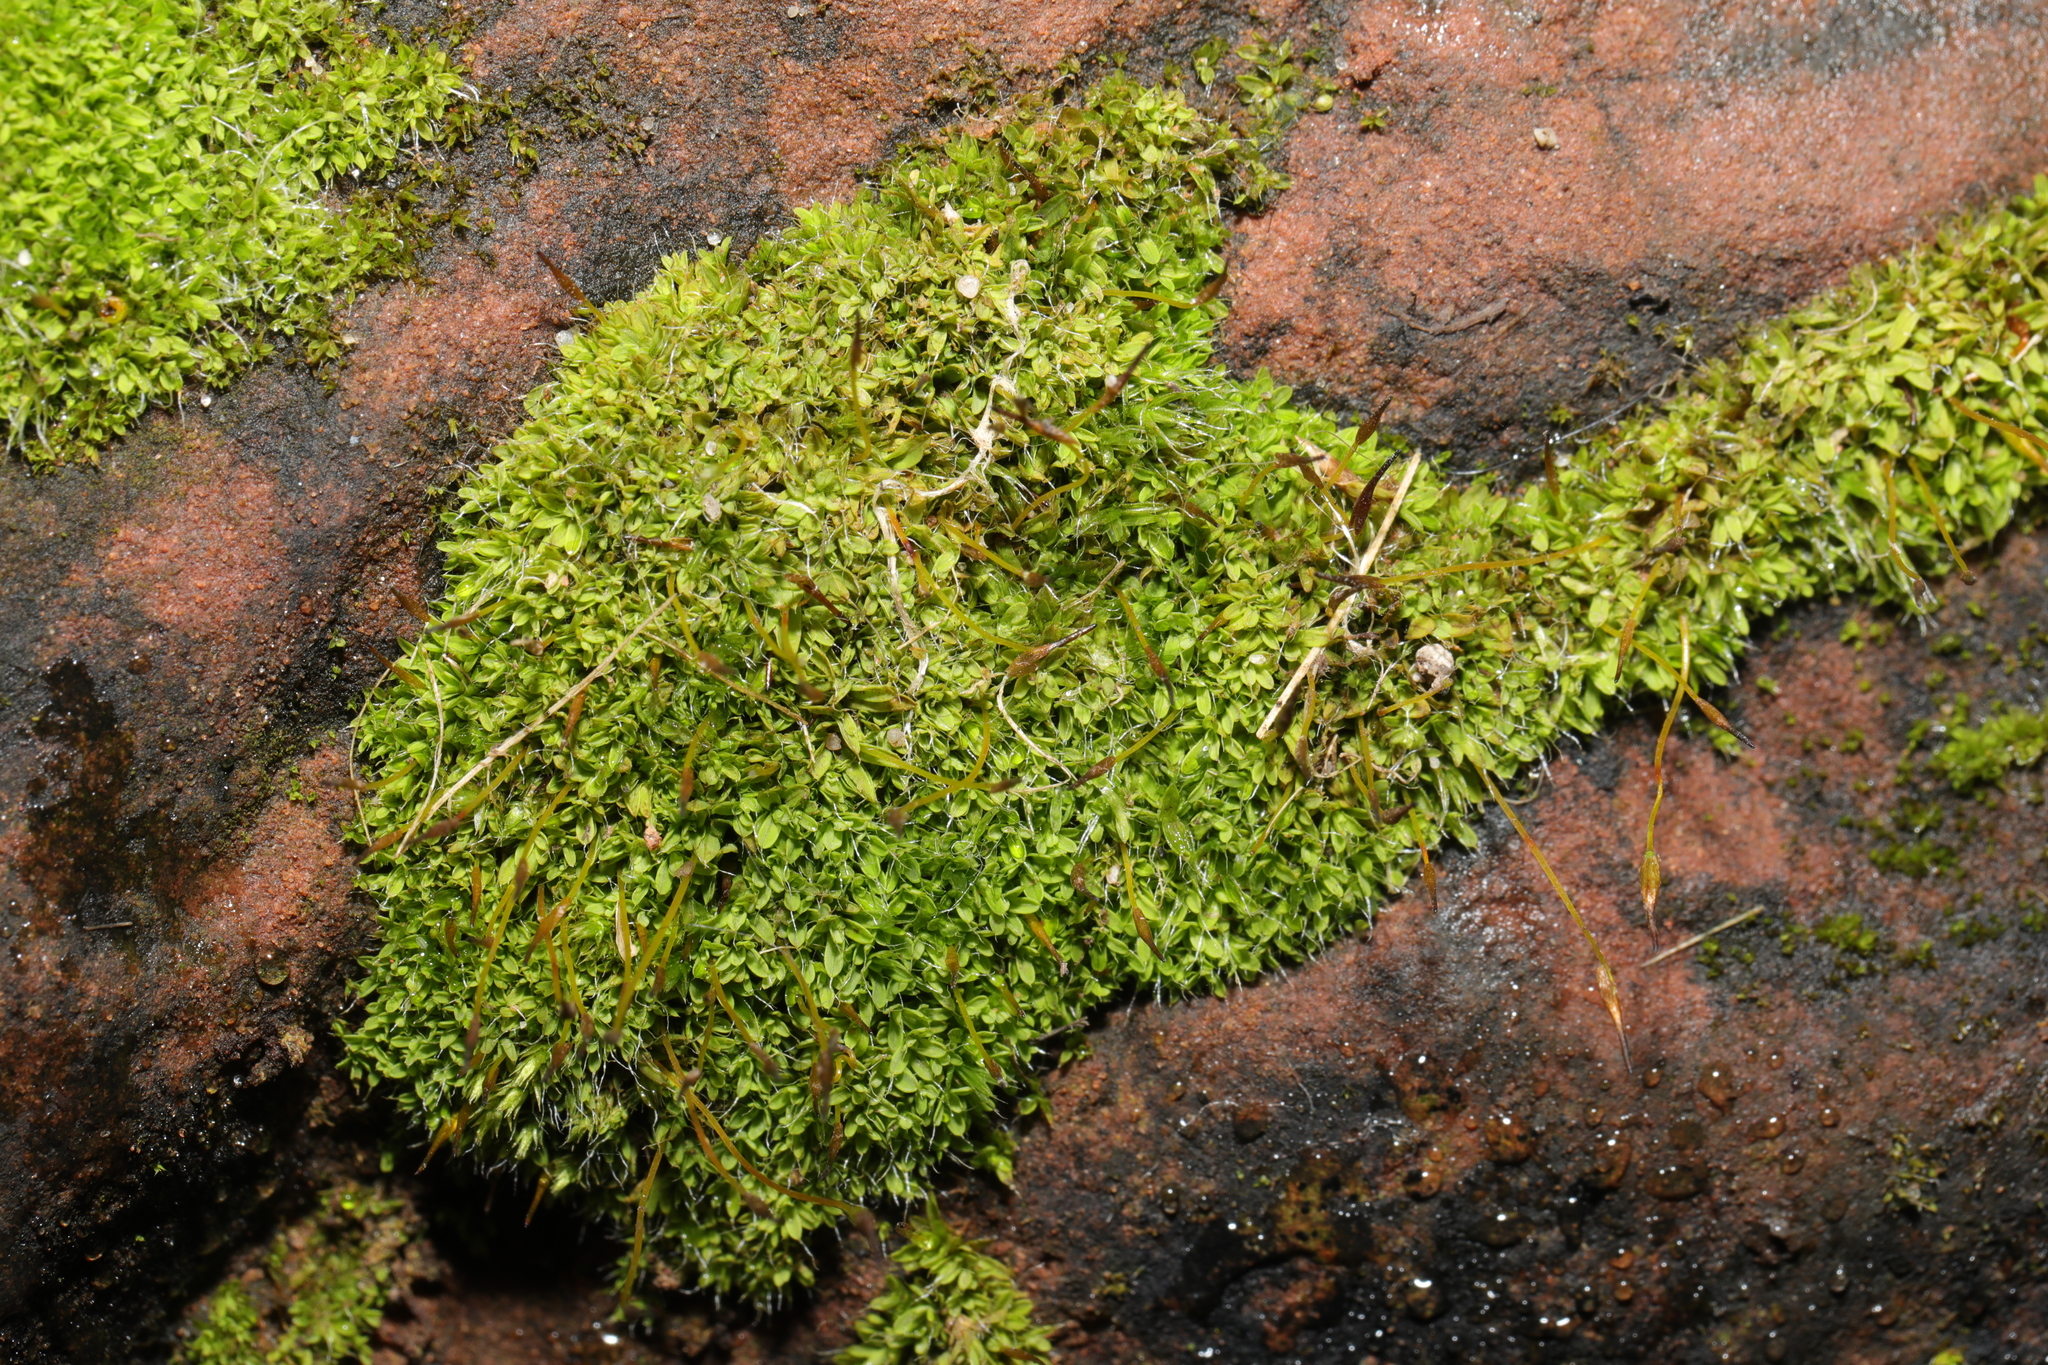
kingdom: Plantae
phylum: Bryophyta
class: Bryopsida
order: Pottiales
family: Pottiaceae
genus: Tortula
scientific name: Tortula muralis
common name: Wall screw-moss
